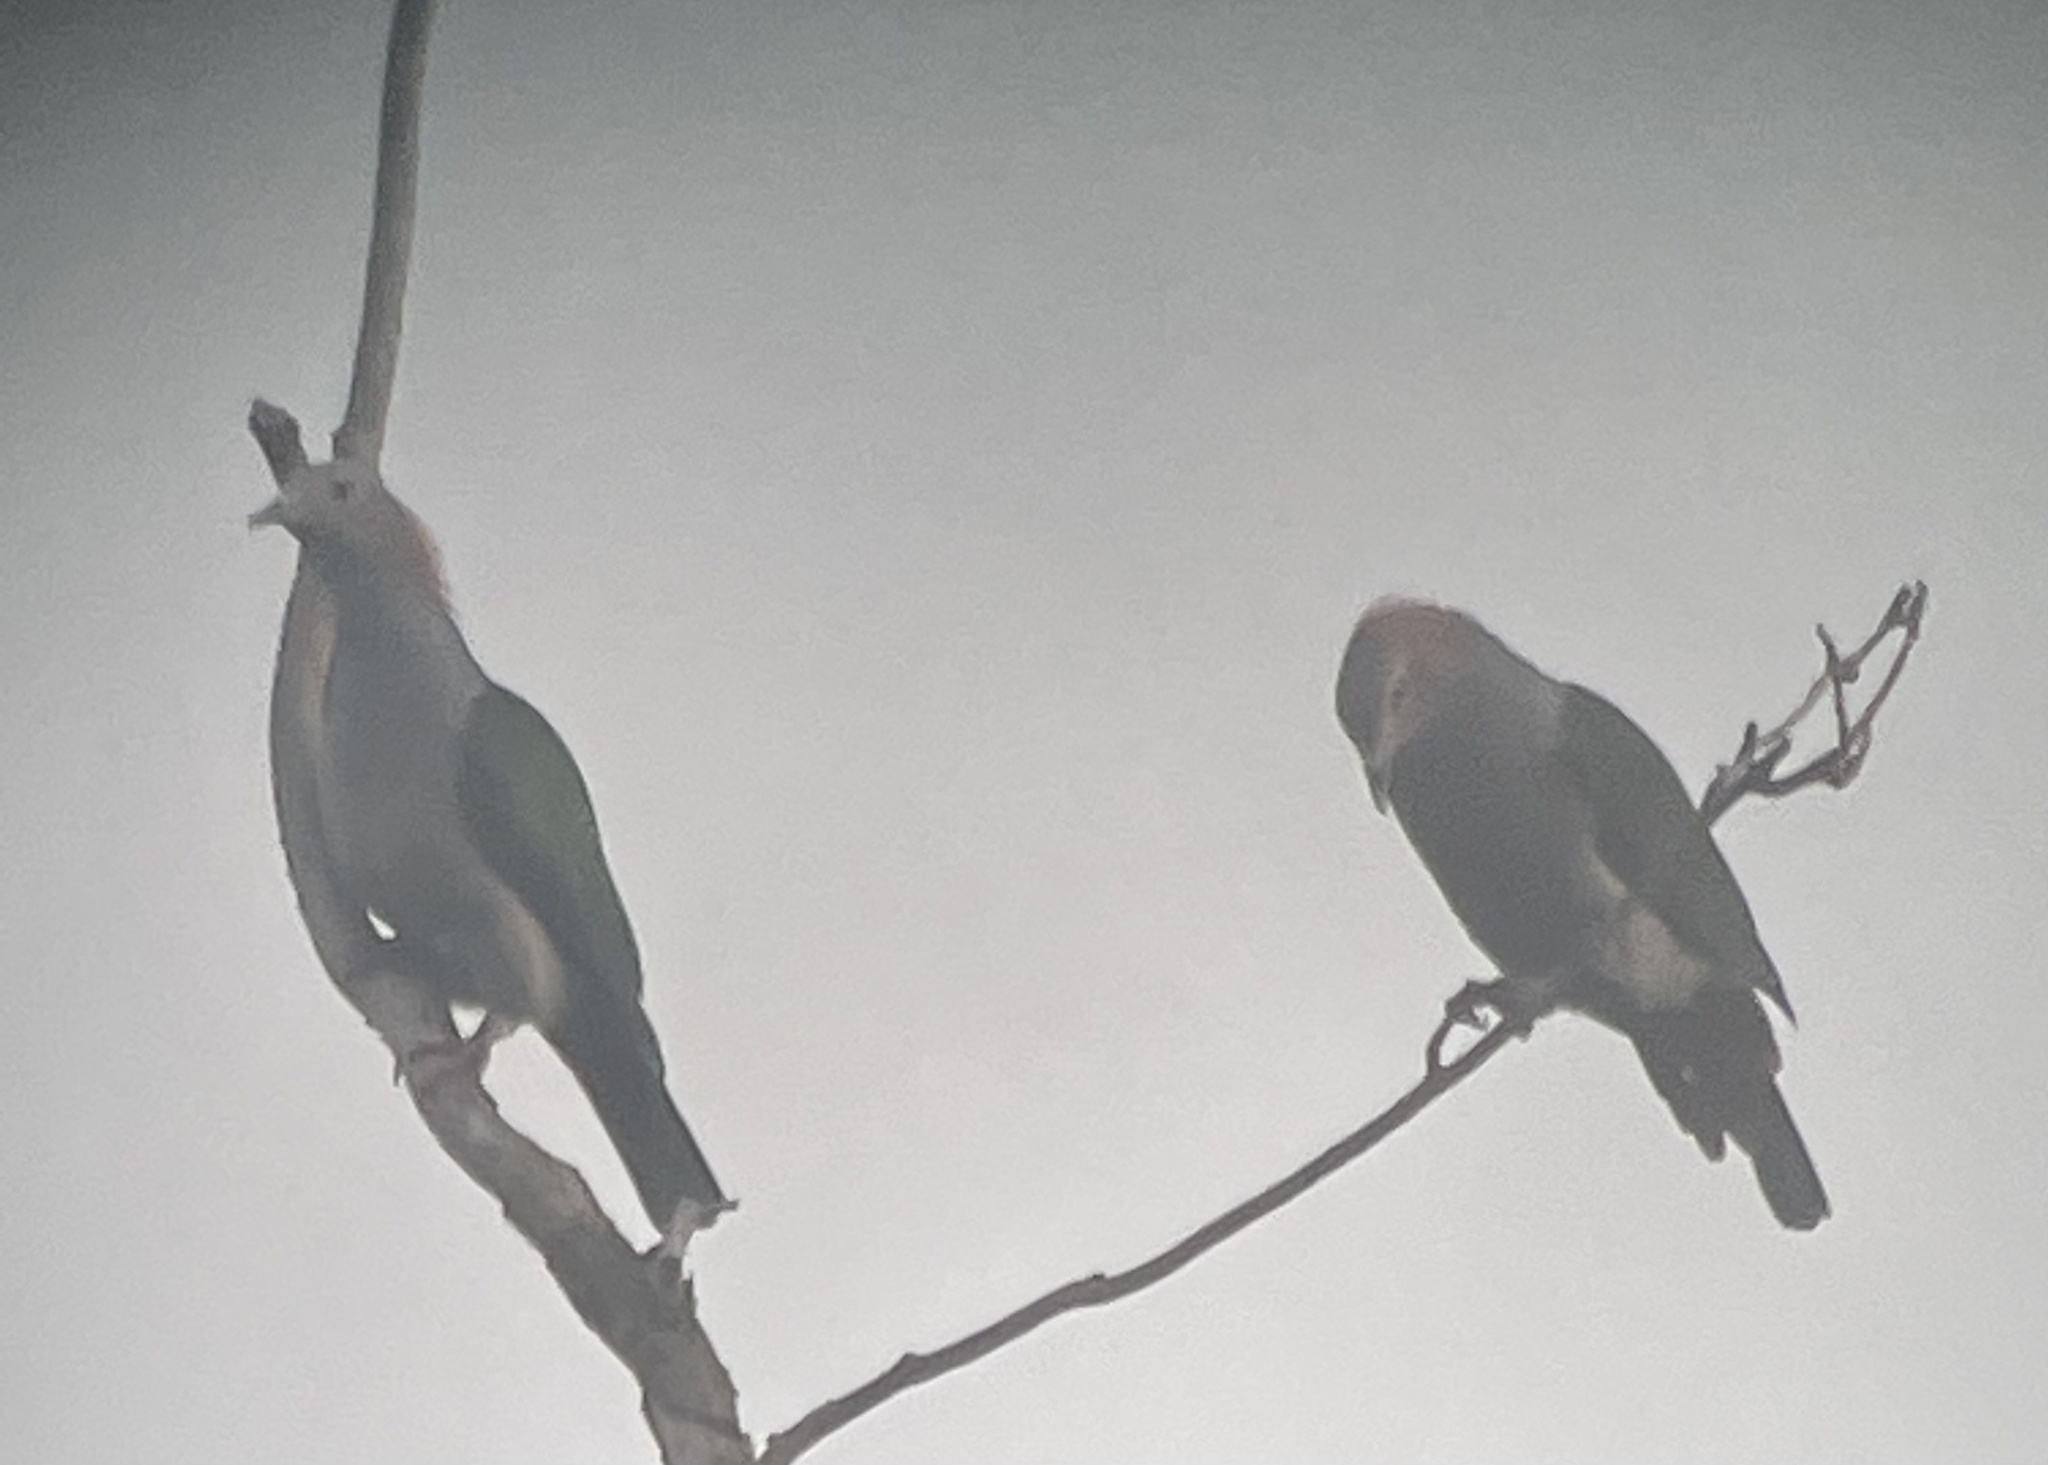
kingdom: Animalia
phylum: Chordata
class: Aves
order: Columbiformes
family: Columbidae
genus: Ducula
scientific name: Ducula aenea
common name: Green imperial pigeon
